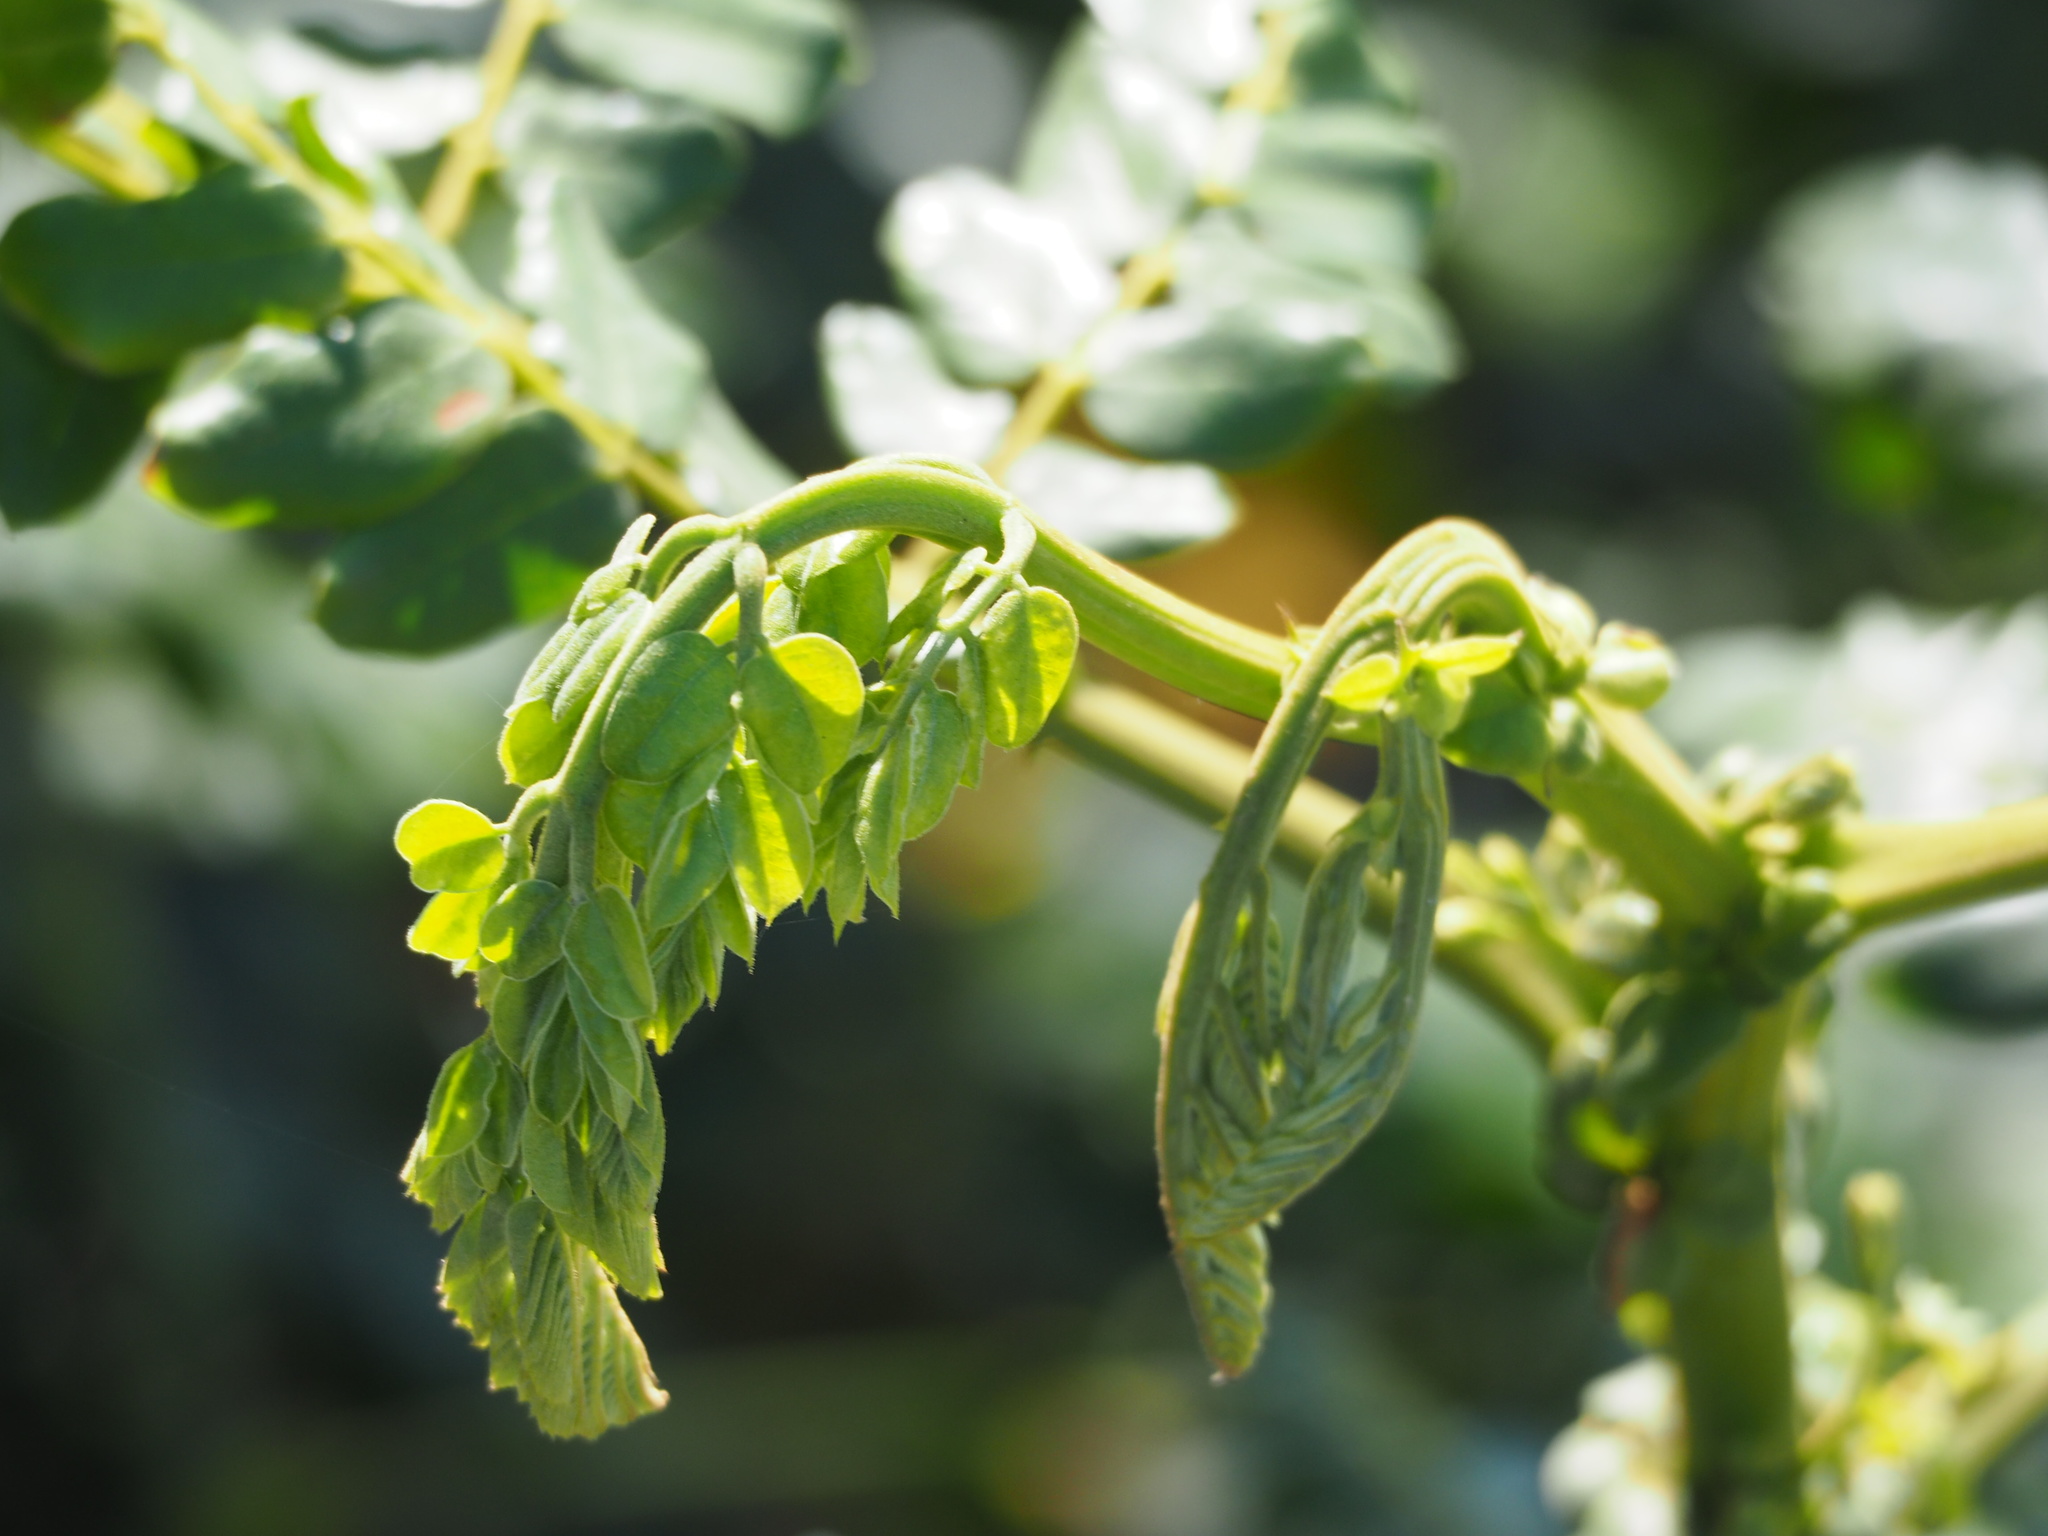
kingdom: Plantae
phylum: Tracheophyta
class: Magnoliopsida
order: Fabales
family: Fabaceae
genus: Guilandina
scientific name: Guilandina bonduc
